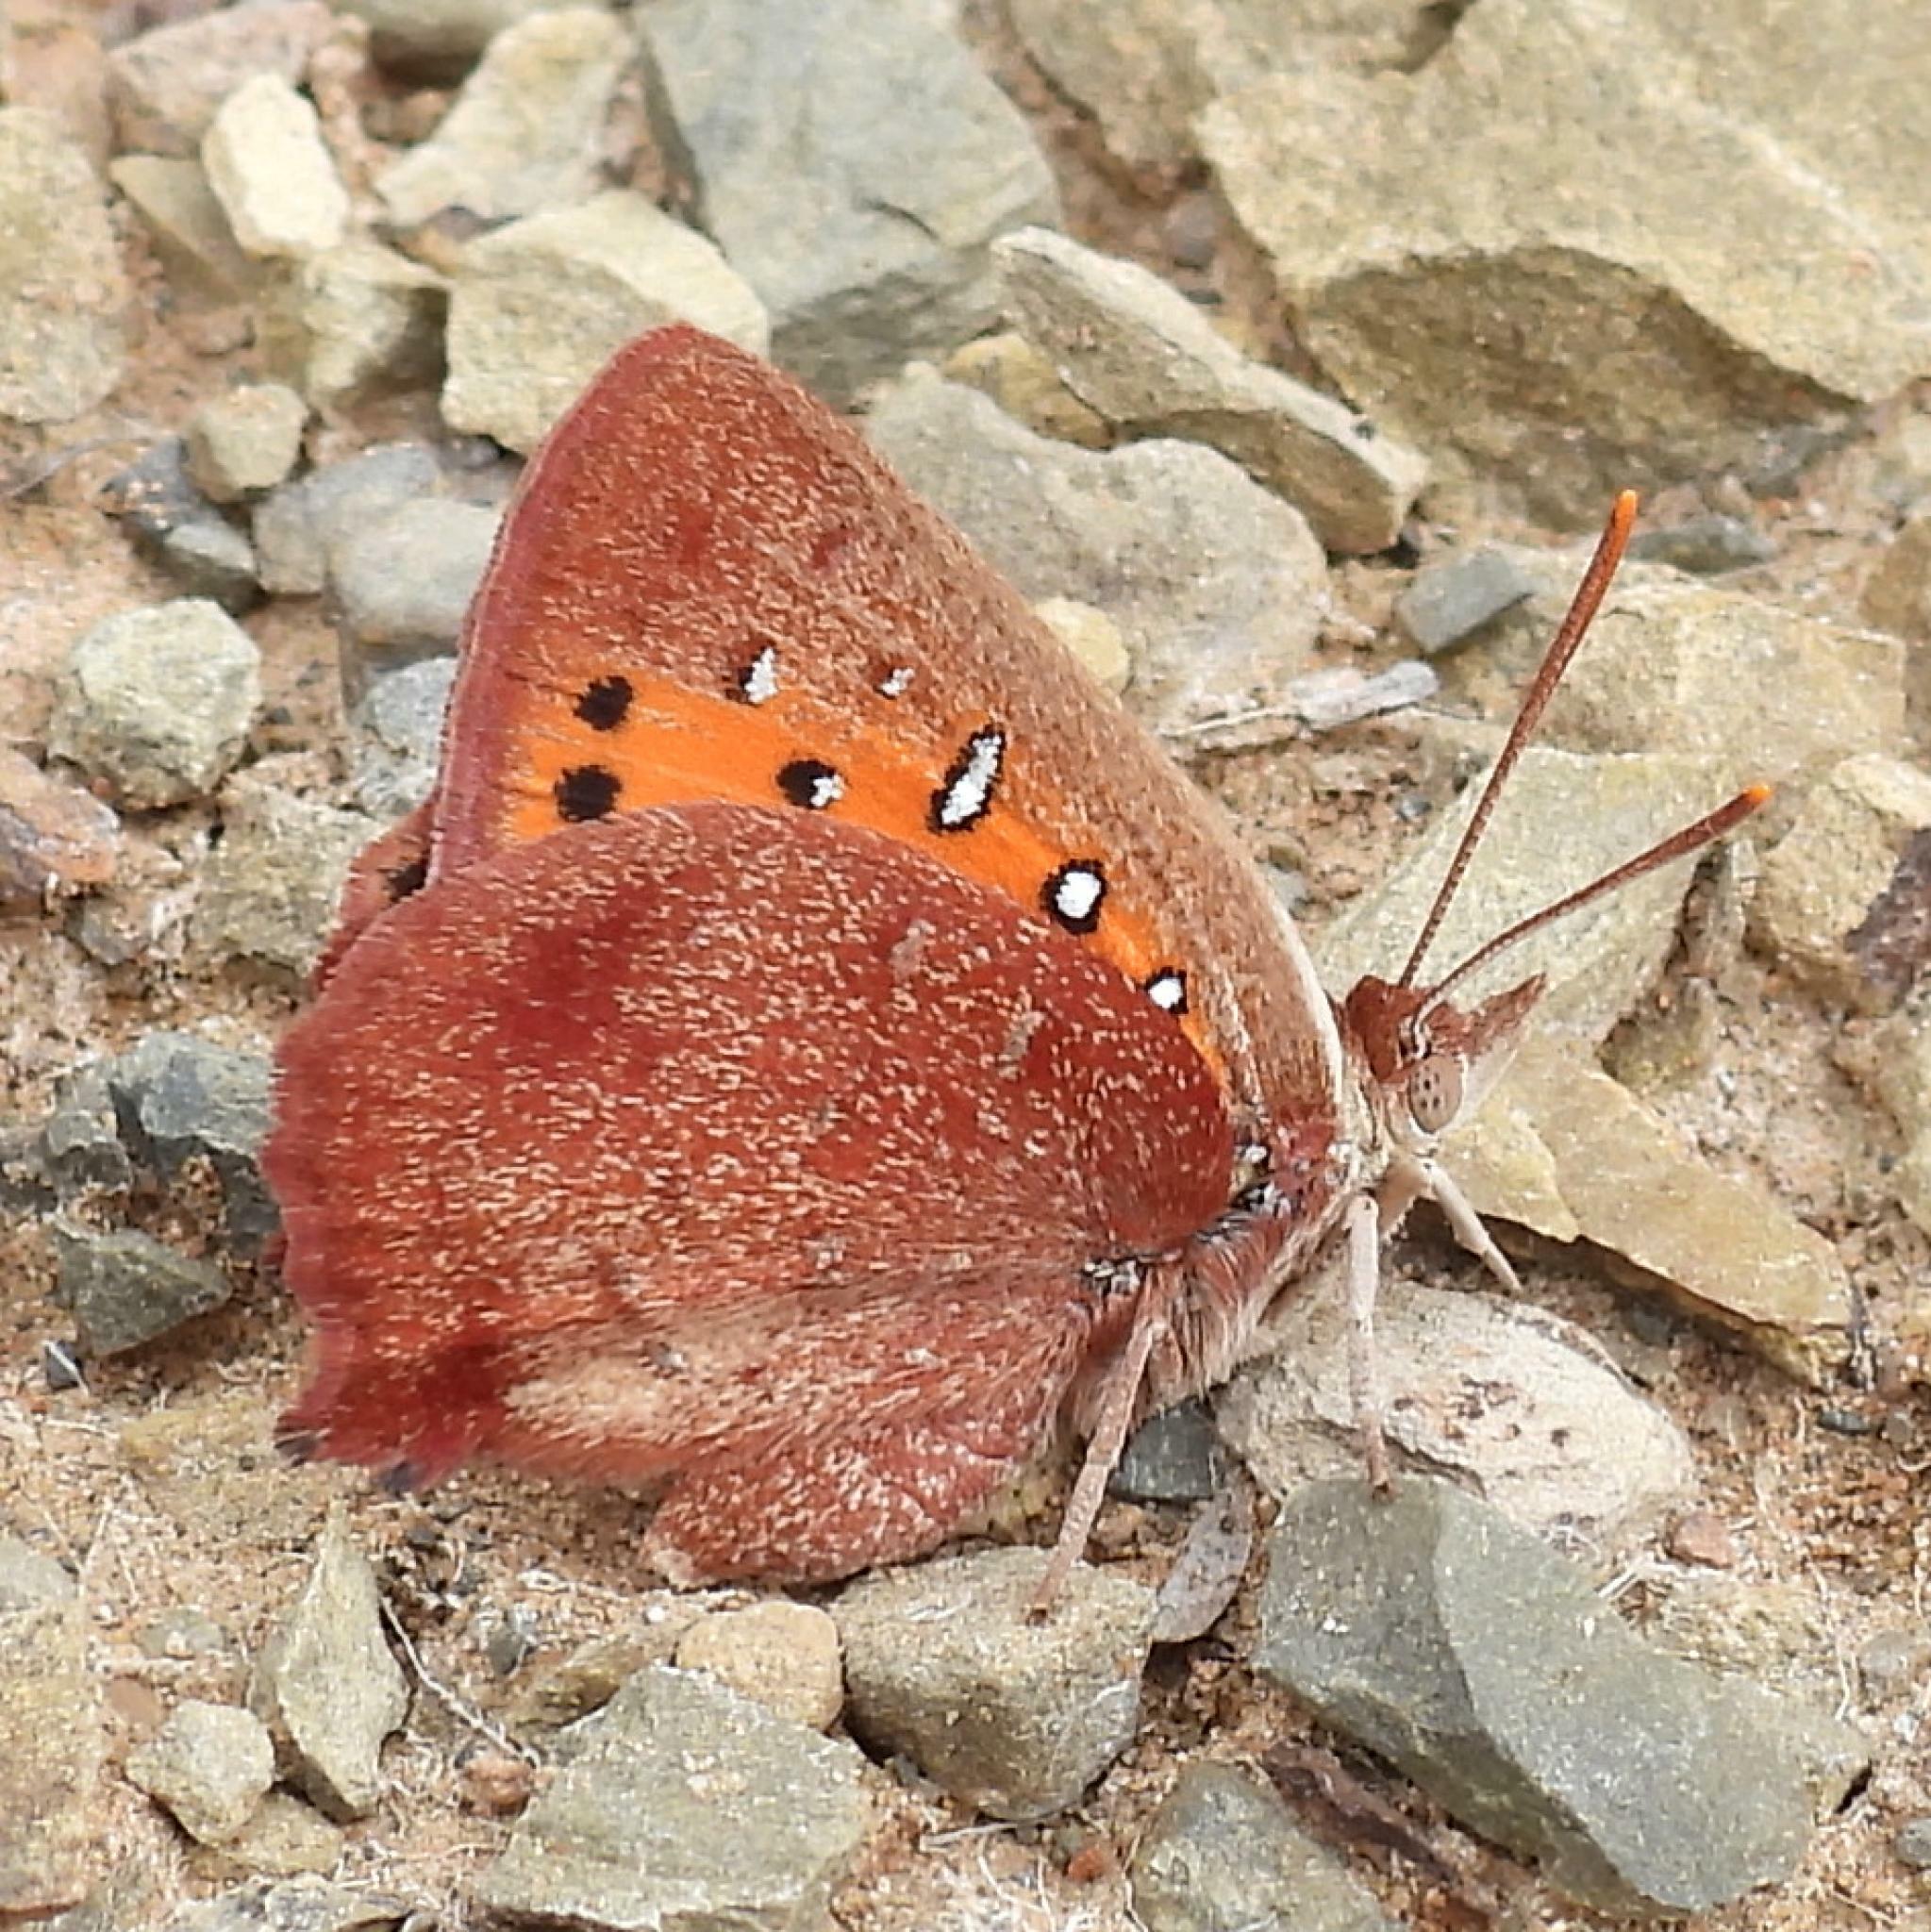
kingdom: Animalia
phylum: Arthropoda
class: Insecta
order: Lepidoptera
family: Lycaenidae
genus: Aloeides
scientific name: Aloeides aranda
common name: Aranda copper
